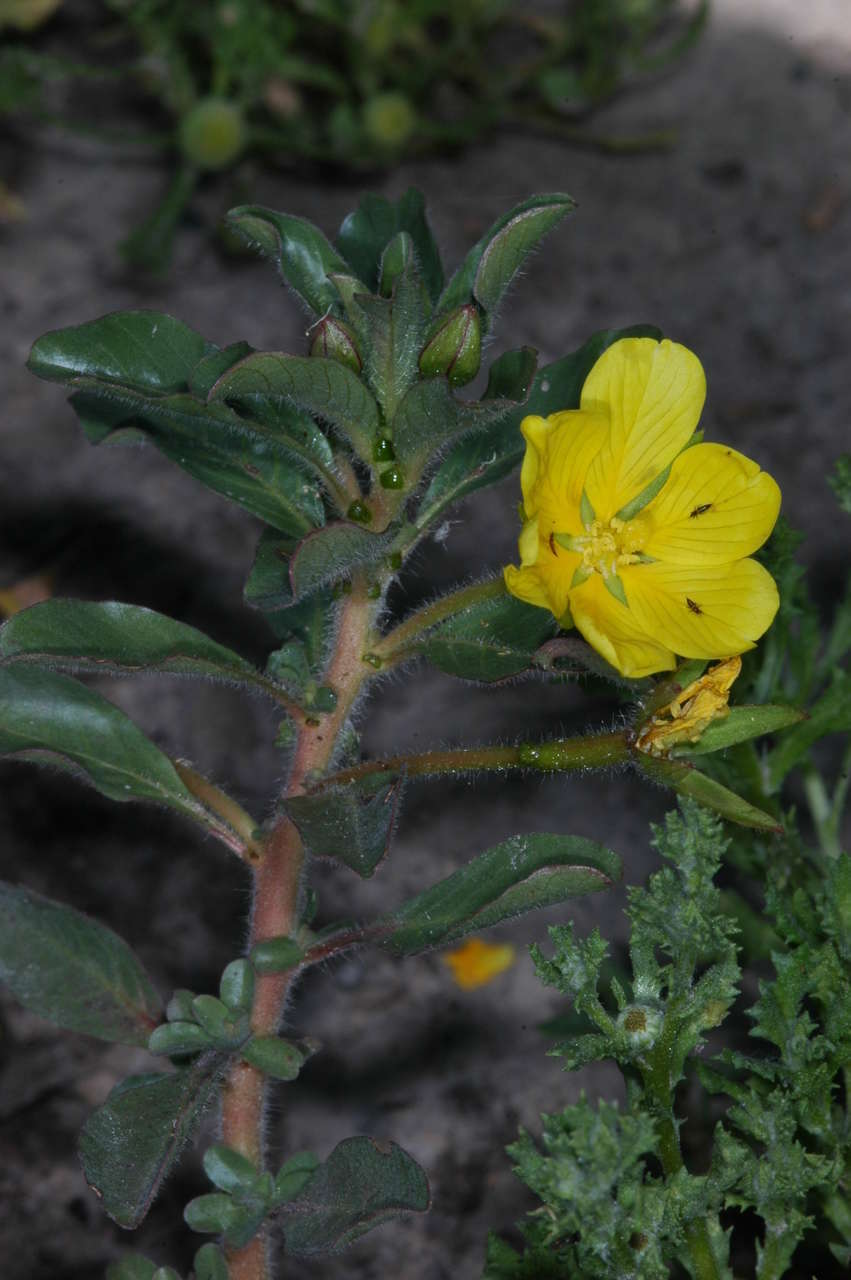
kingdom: Plantae
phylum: Tracheophyta
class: Magnoliopsida
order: Myrtales
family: Onagraceae
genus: Ludwigia
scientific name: Ludwigia peploides
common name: Floating primrose-willow
